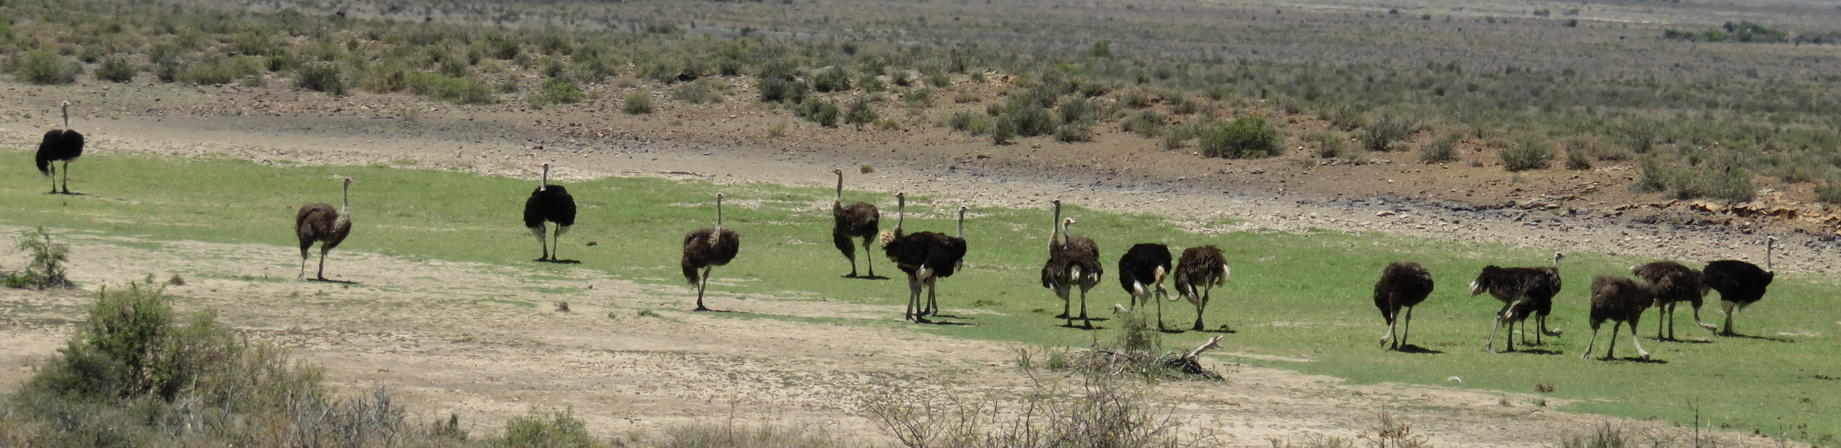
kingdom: Animalia
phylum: Chordata
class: Aves
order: Struthioniformes
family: Struthionidae
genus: Struthio
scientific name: Struthio camelus
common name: Common ostrich
